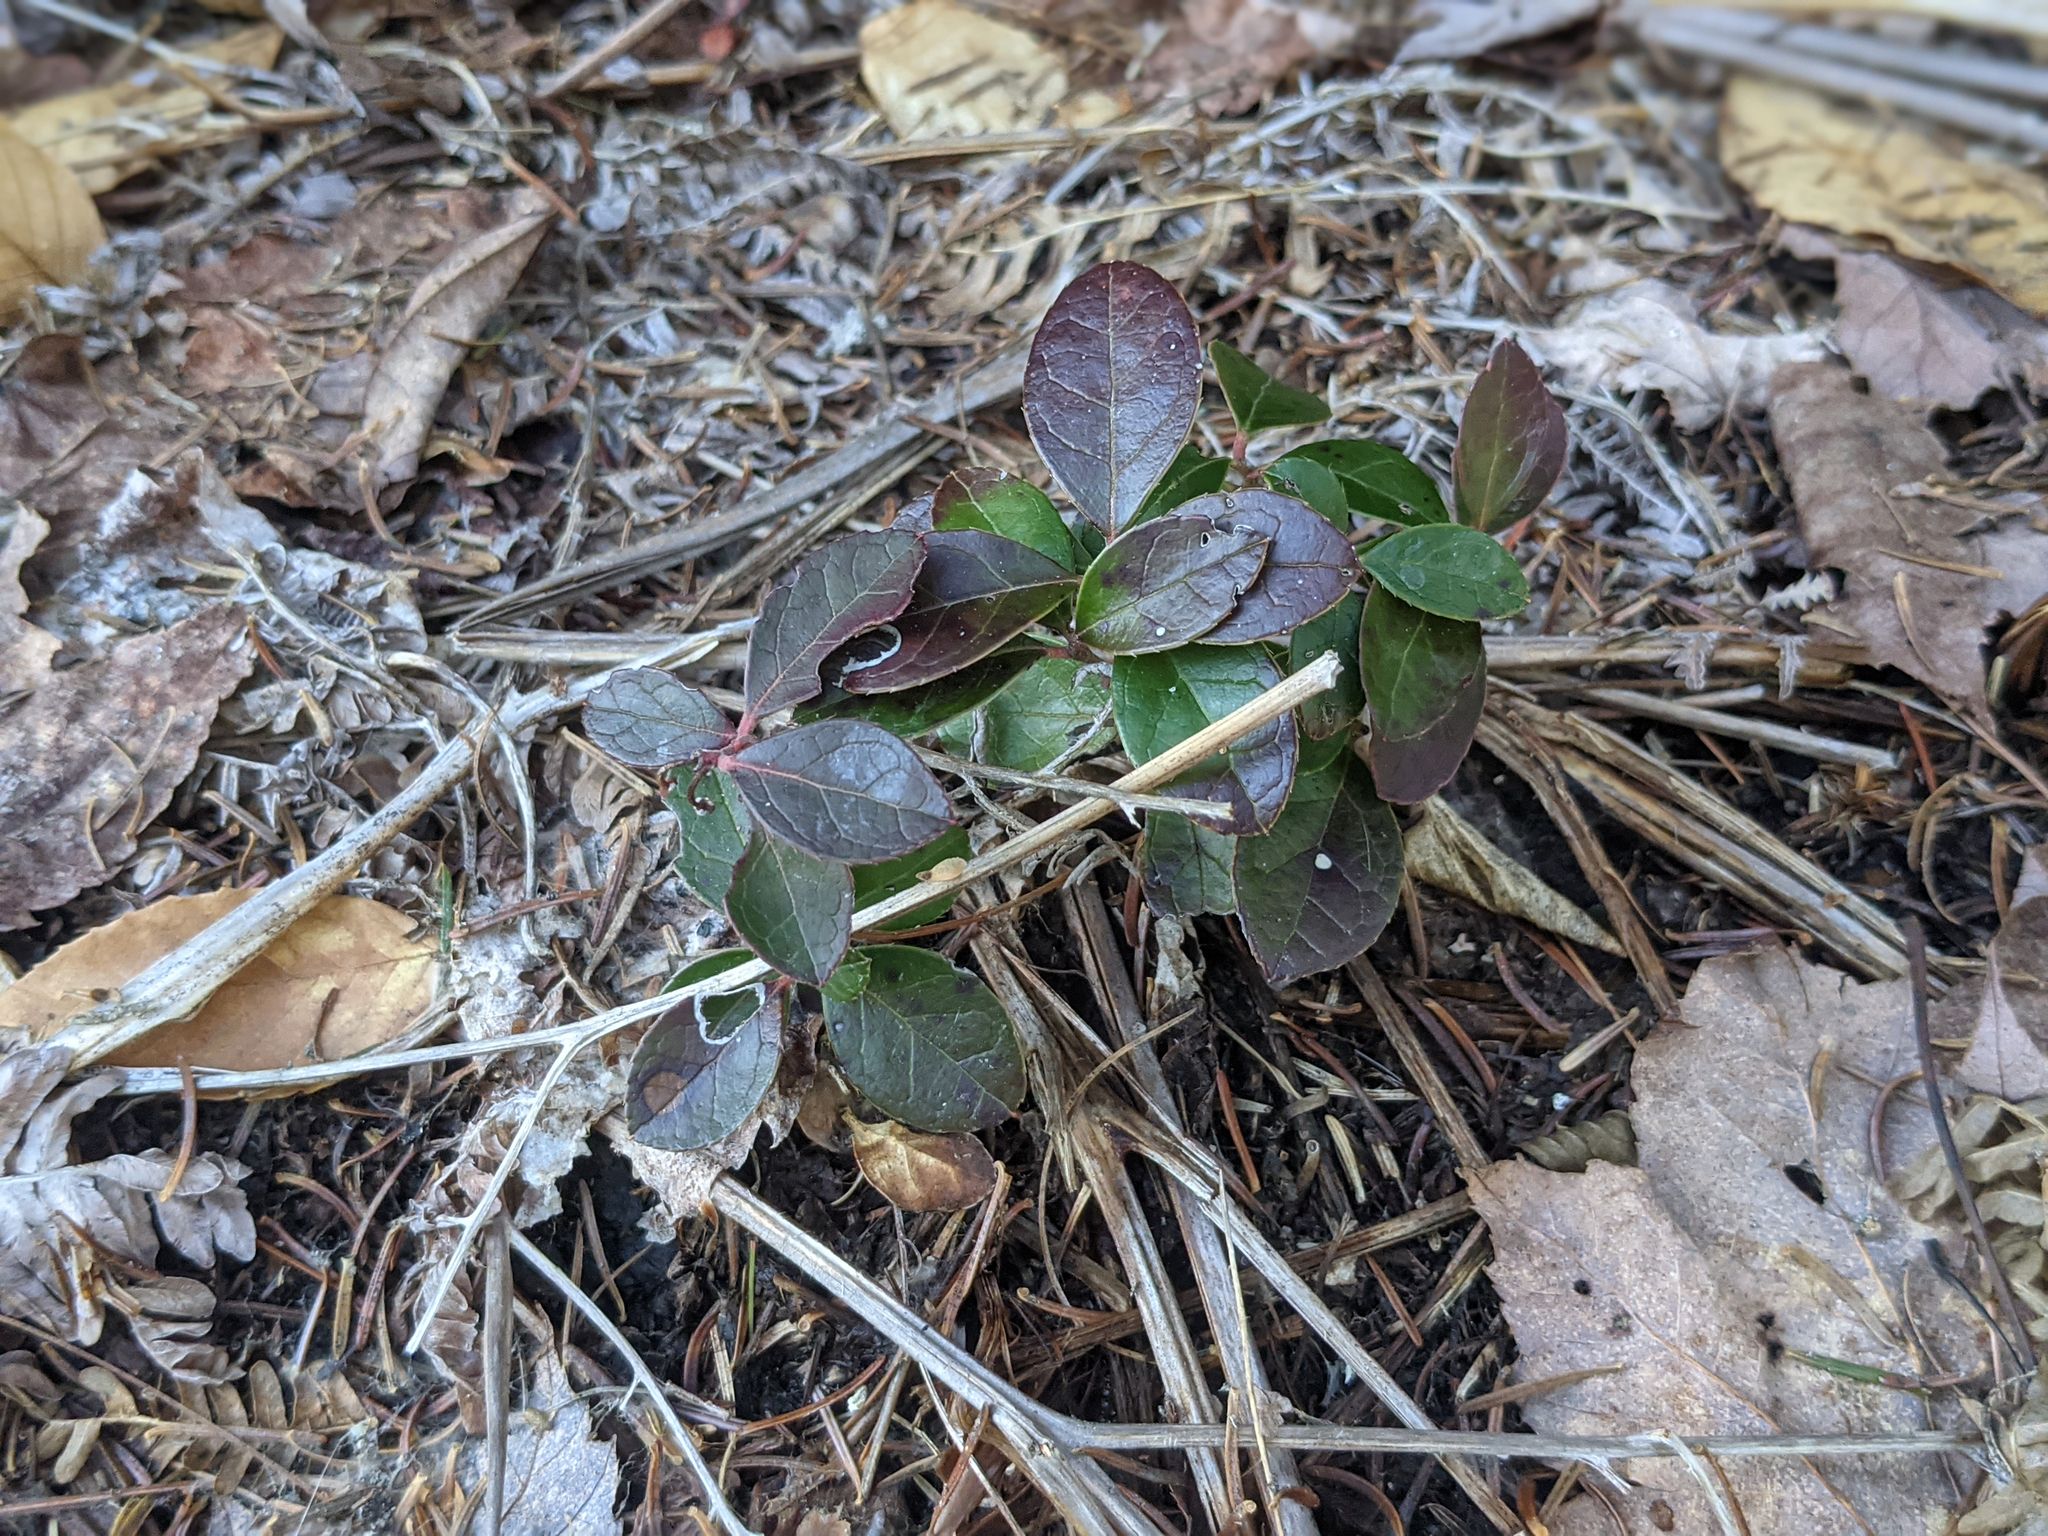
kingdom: Plantae
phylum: Tracheophyta
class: Magnoliopsida
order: Ericales
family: Ericaceae
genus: Gaultheria
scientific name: Gaultheria procumbens
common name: Checkerberry
